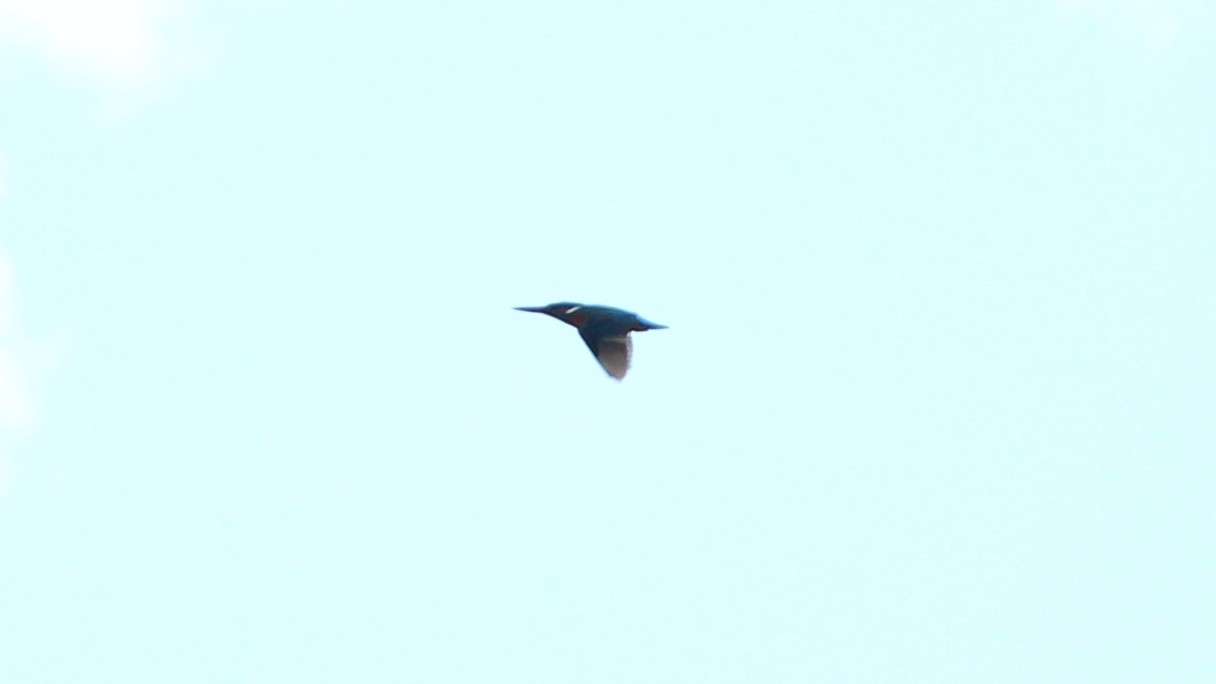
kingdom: Animalia
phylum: Chordata
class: Aves
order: Coraciiformes
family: Alcedinidae
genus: Alcedo
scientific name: Alcedo atthis
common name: Common kingfisher
